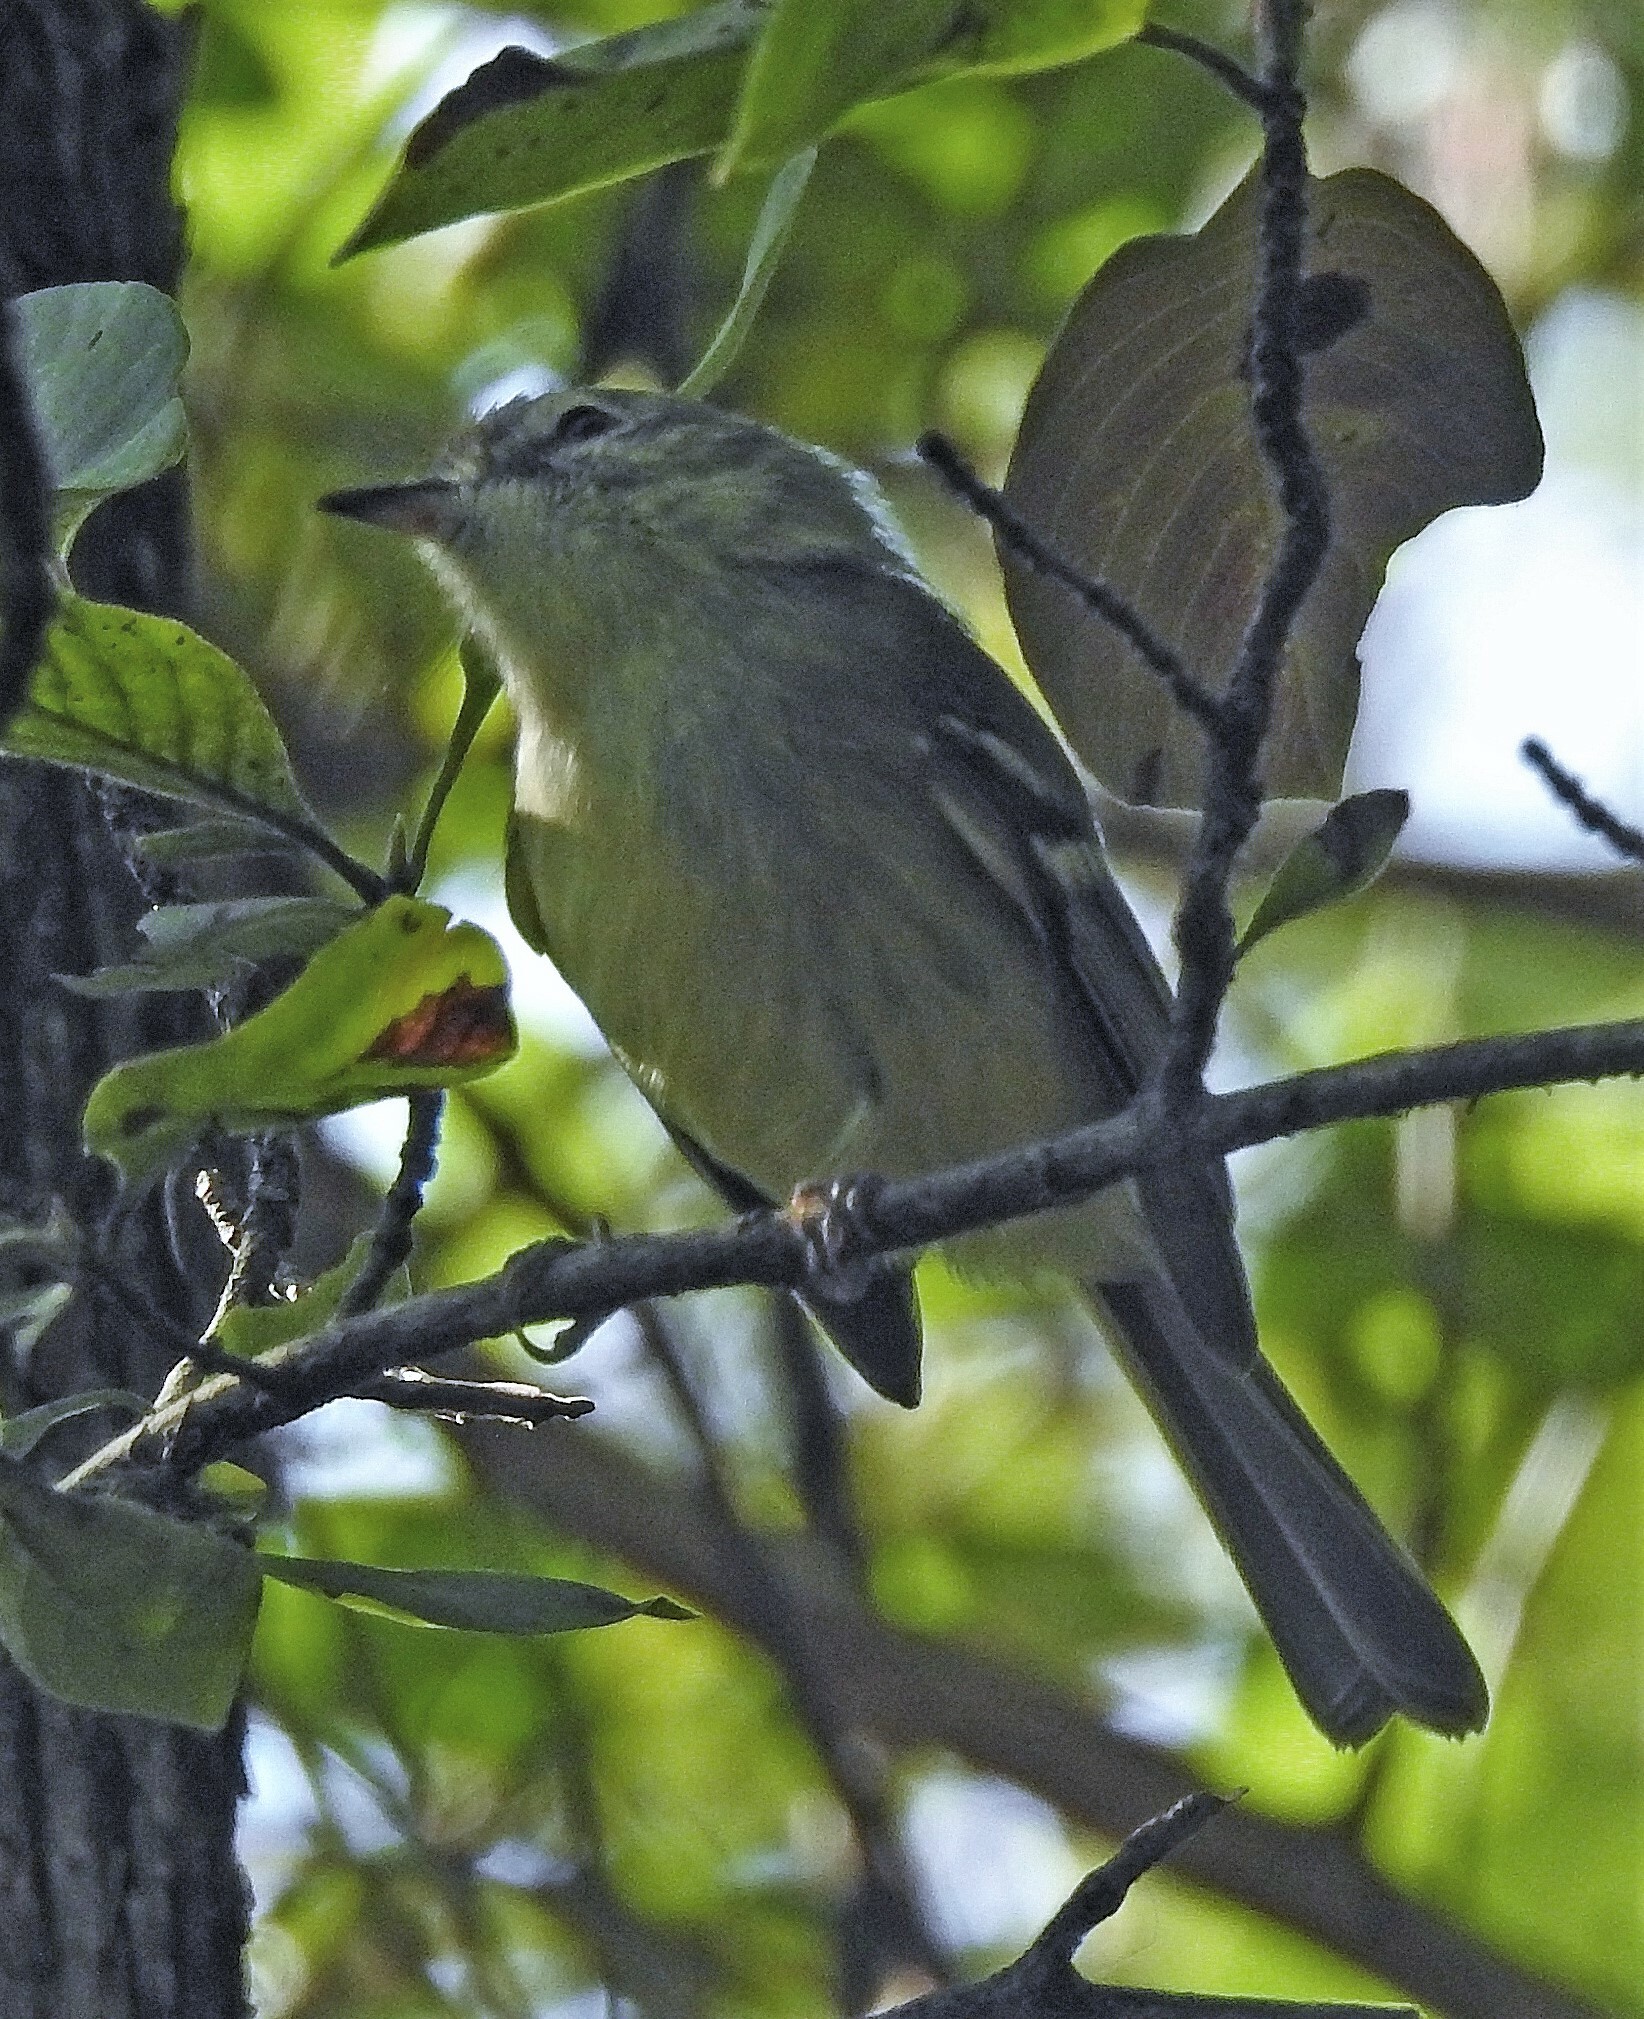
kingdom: Animalia
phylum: Chordata
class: Aves
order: Passeriformes
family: Tyrannidae
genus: Phylloscartes
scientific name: Phylloscartes ventralis
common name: Mottle-cheeked tyrannulet
